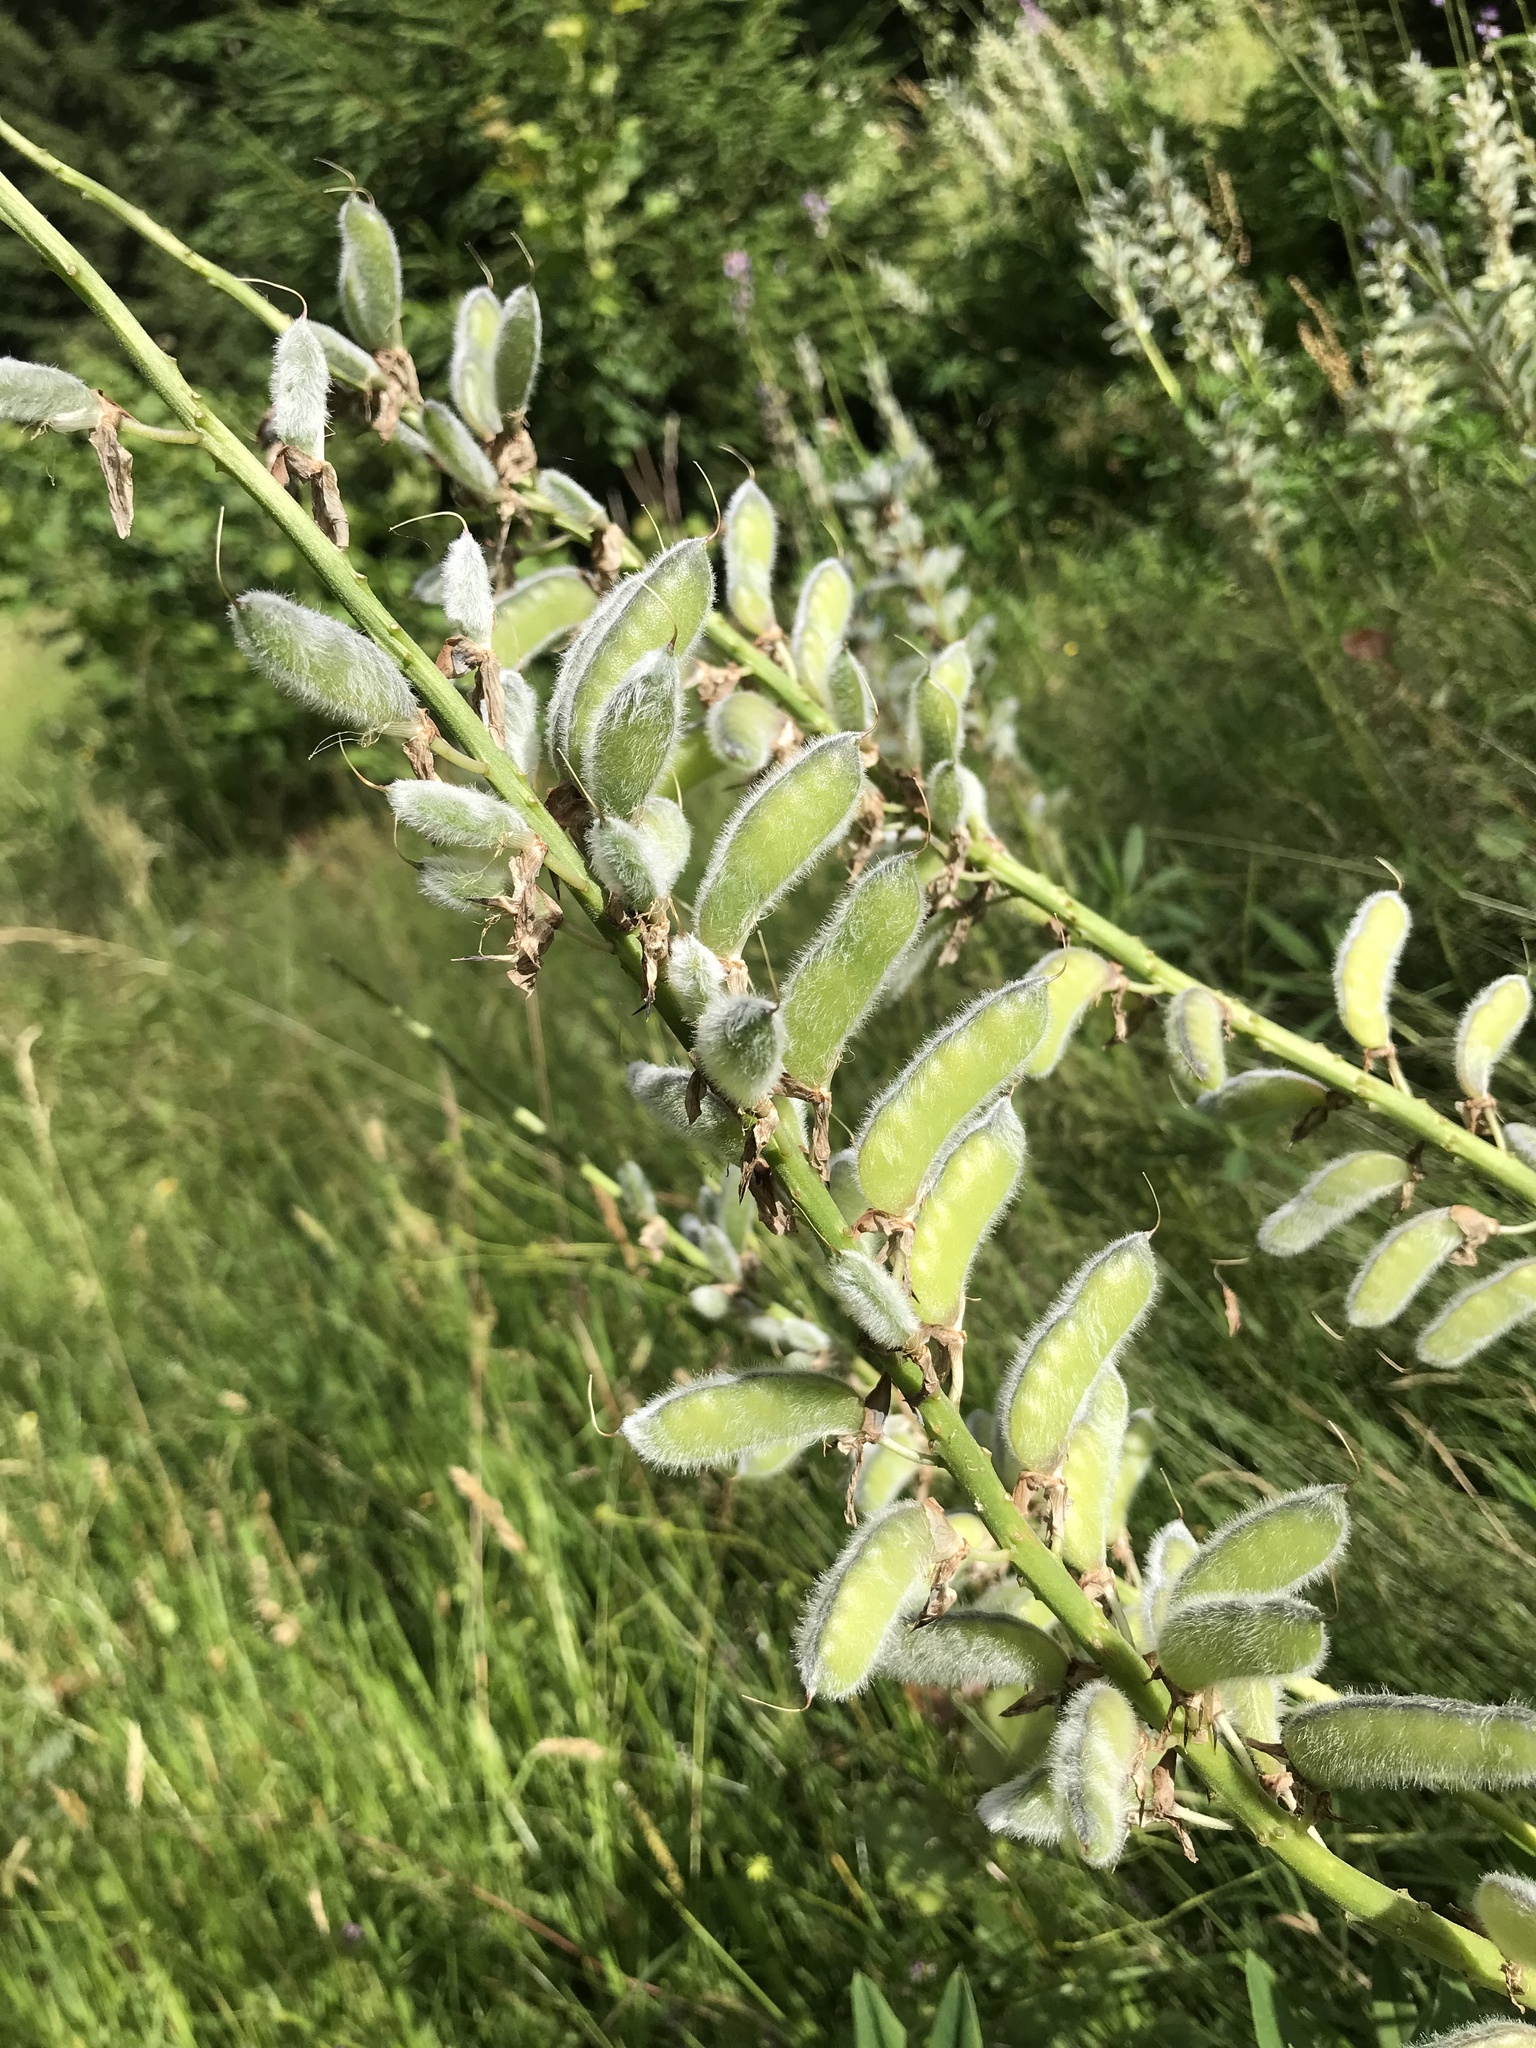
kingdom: Plantae
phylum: Tracheophyta
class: Magnoliopsida
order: Fabales
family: Fabaceae
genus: Lupinus
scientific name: Lupinus polyphyllus
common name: Garden lupin
